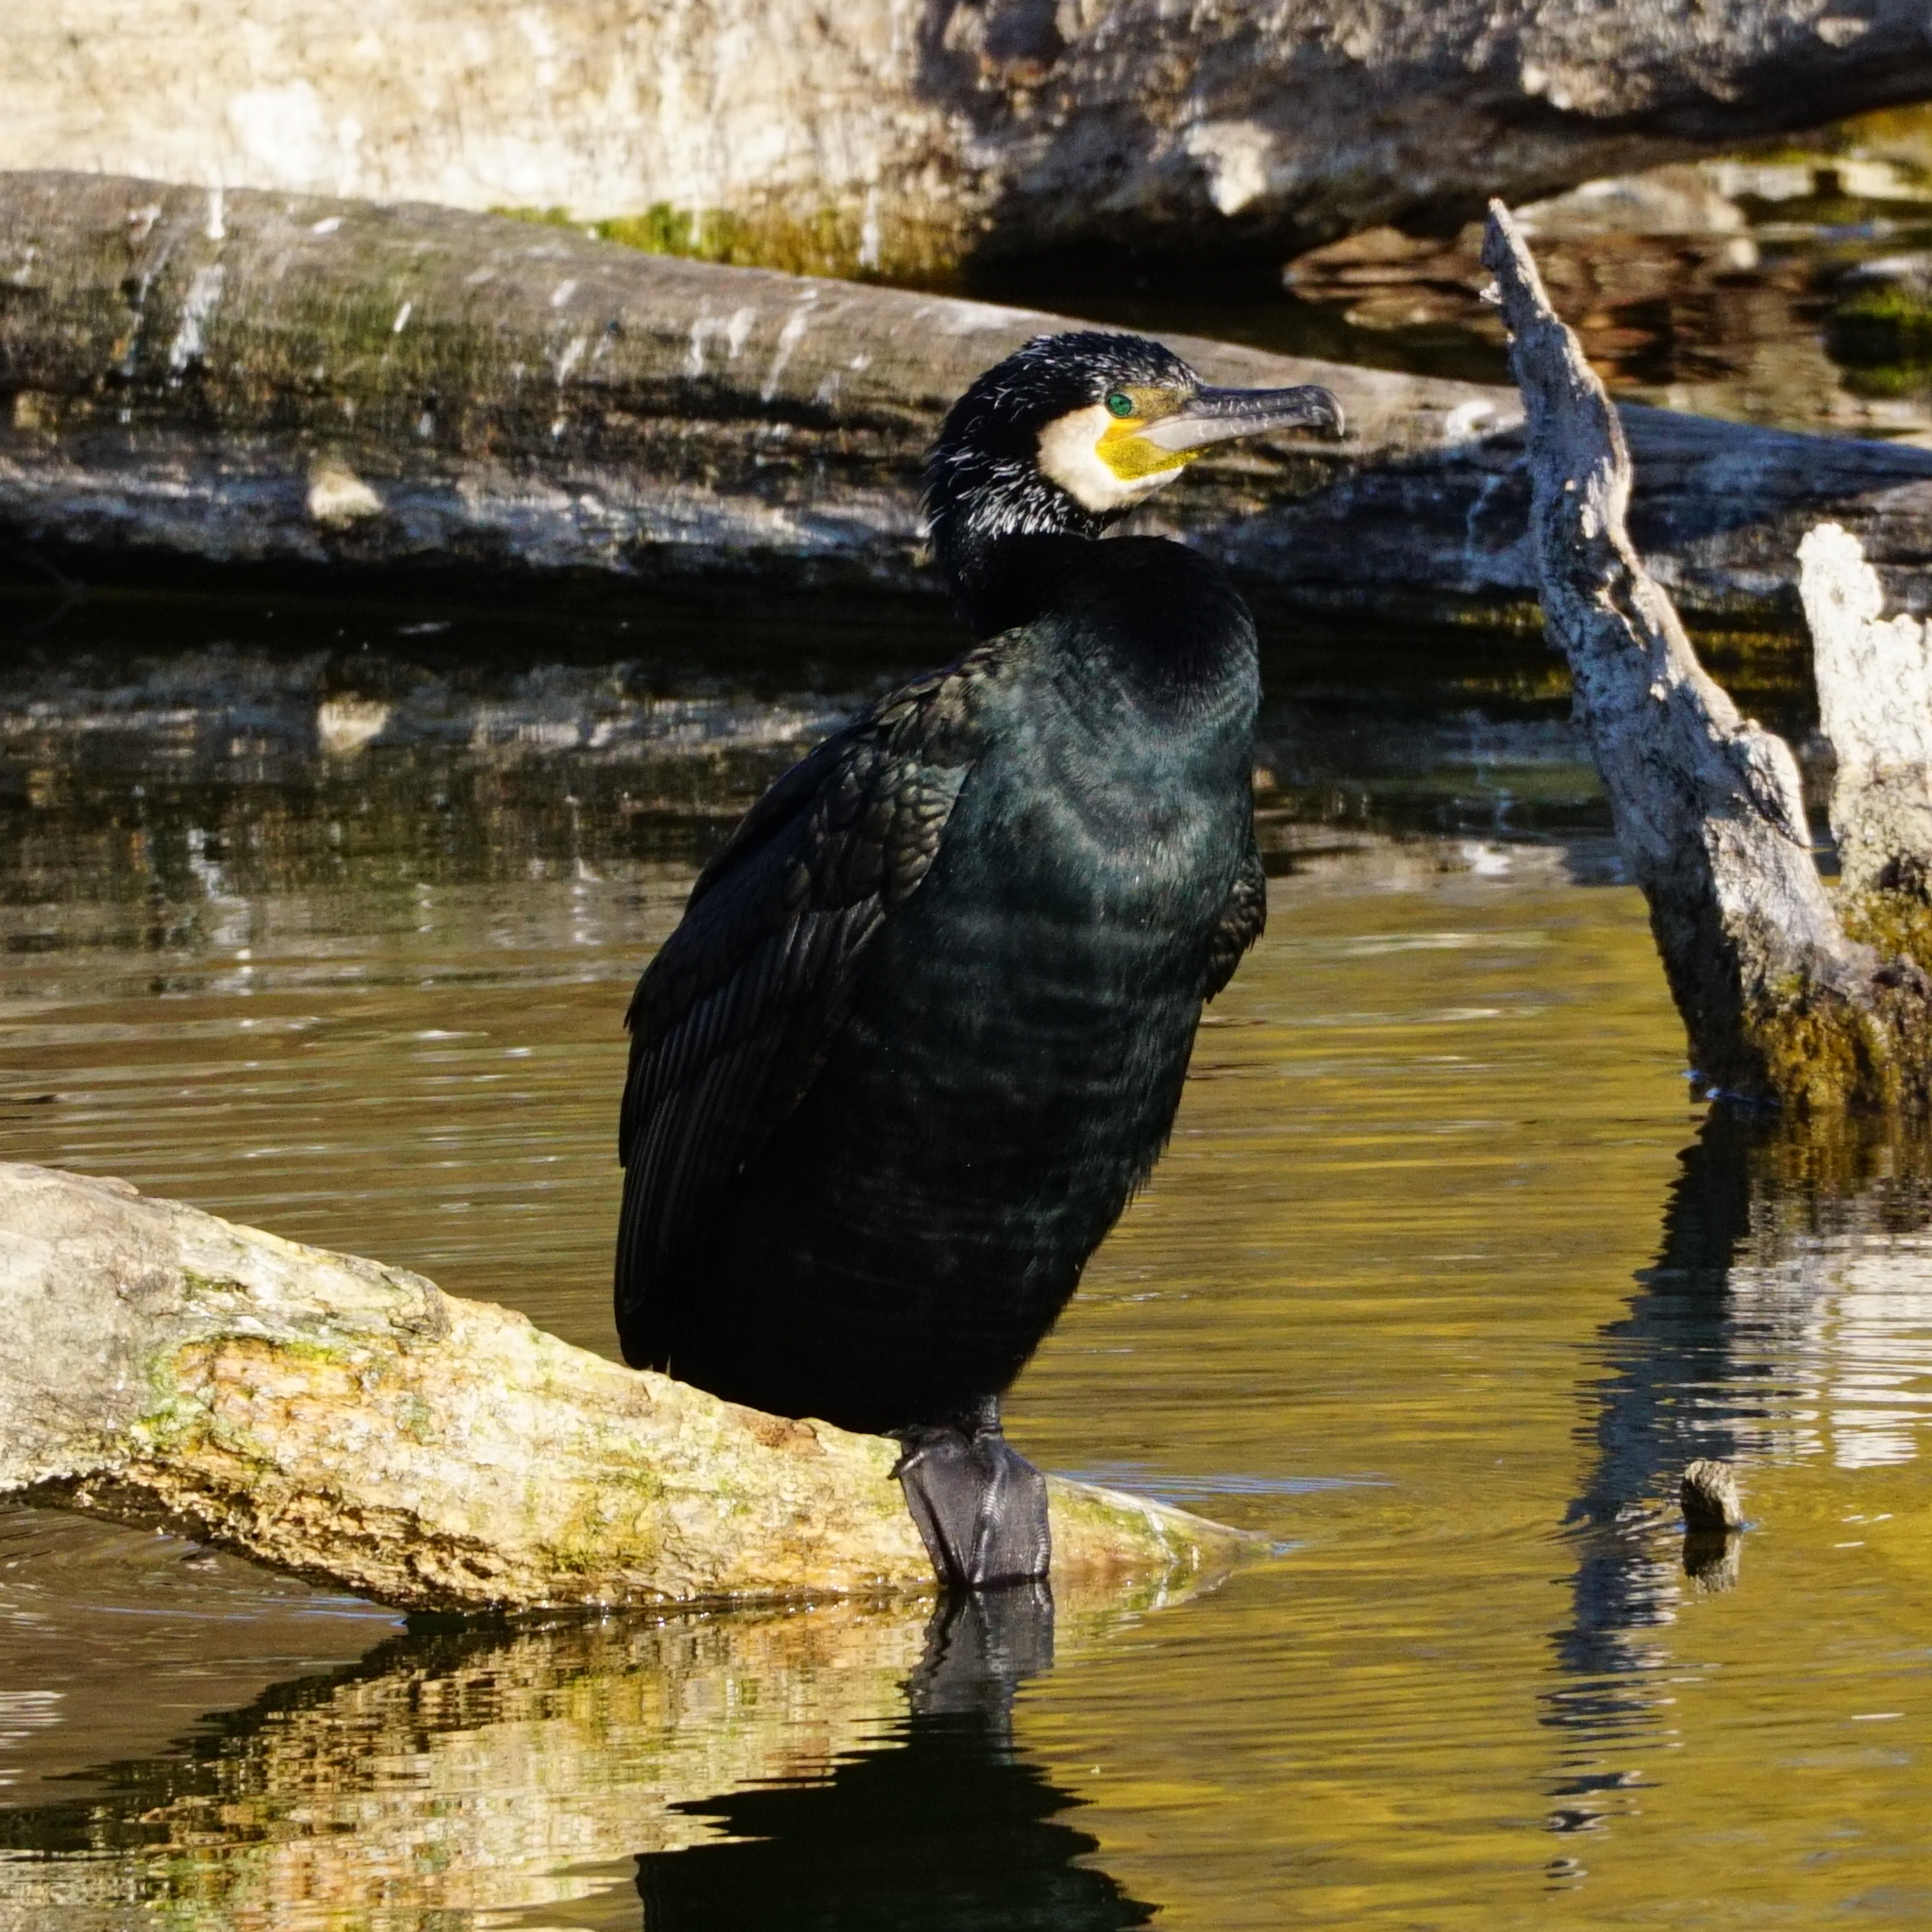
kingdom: Animalia
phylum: Chordata
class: Aves
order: Suliformes
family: Phalacrocoracidae
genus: Phalacrocorax
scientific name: Phalacrocorax carbo
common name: Great cormorant
